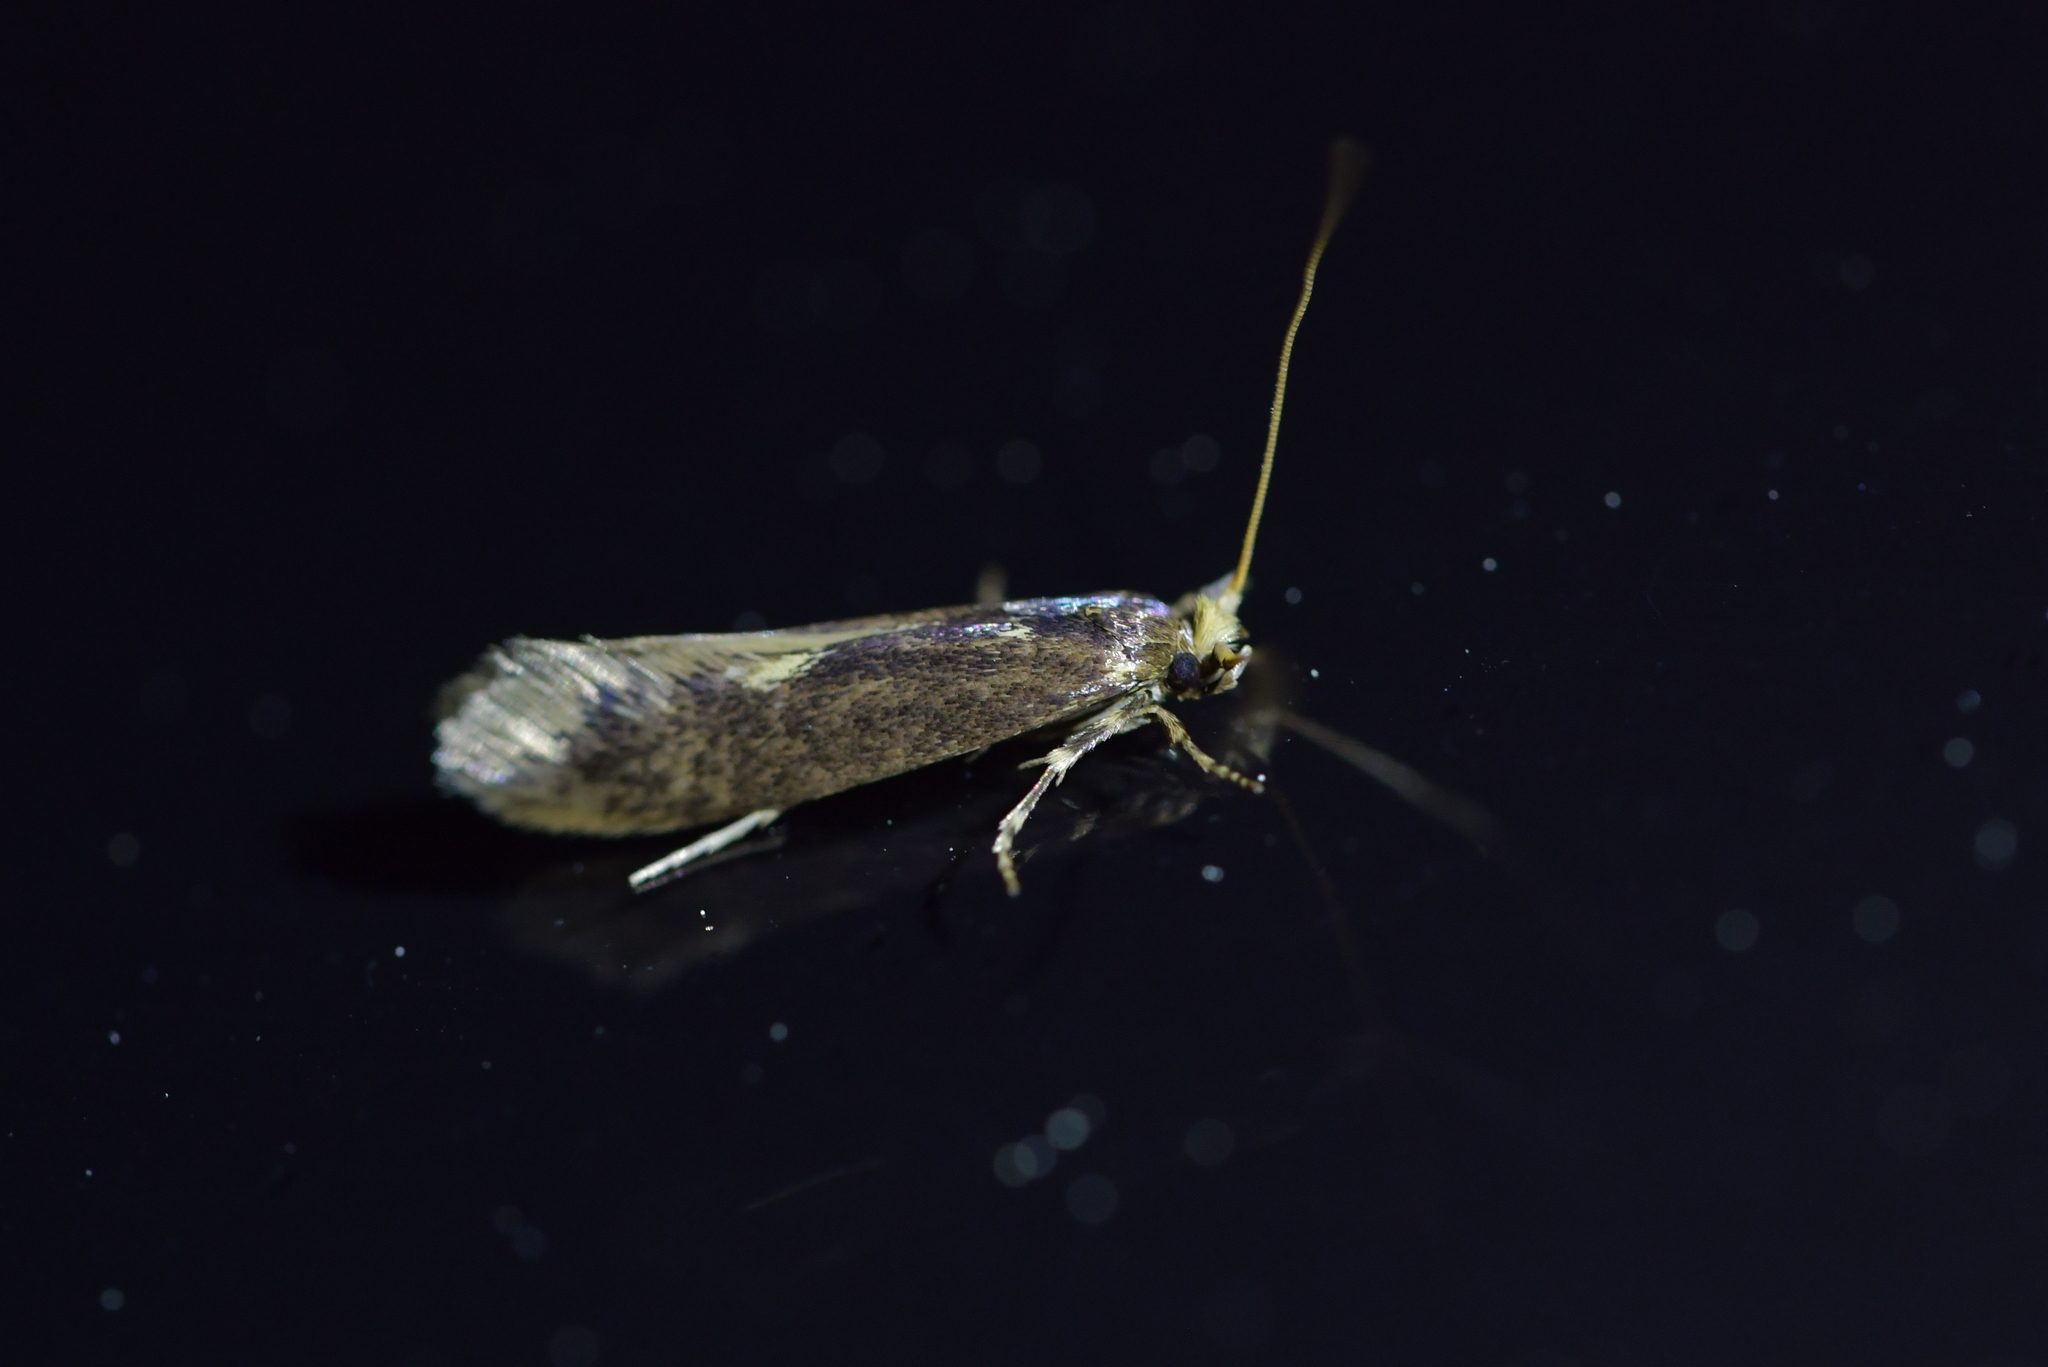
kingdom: Animalia
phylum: Arthropoda
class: Insecta
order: Lepidoptera
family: Tineidae
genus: Opogona
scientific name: Opogona omoscopa
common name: Moth
